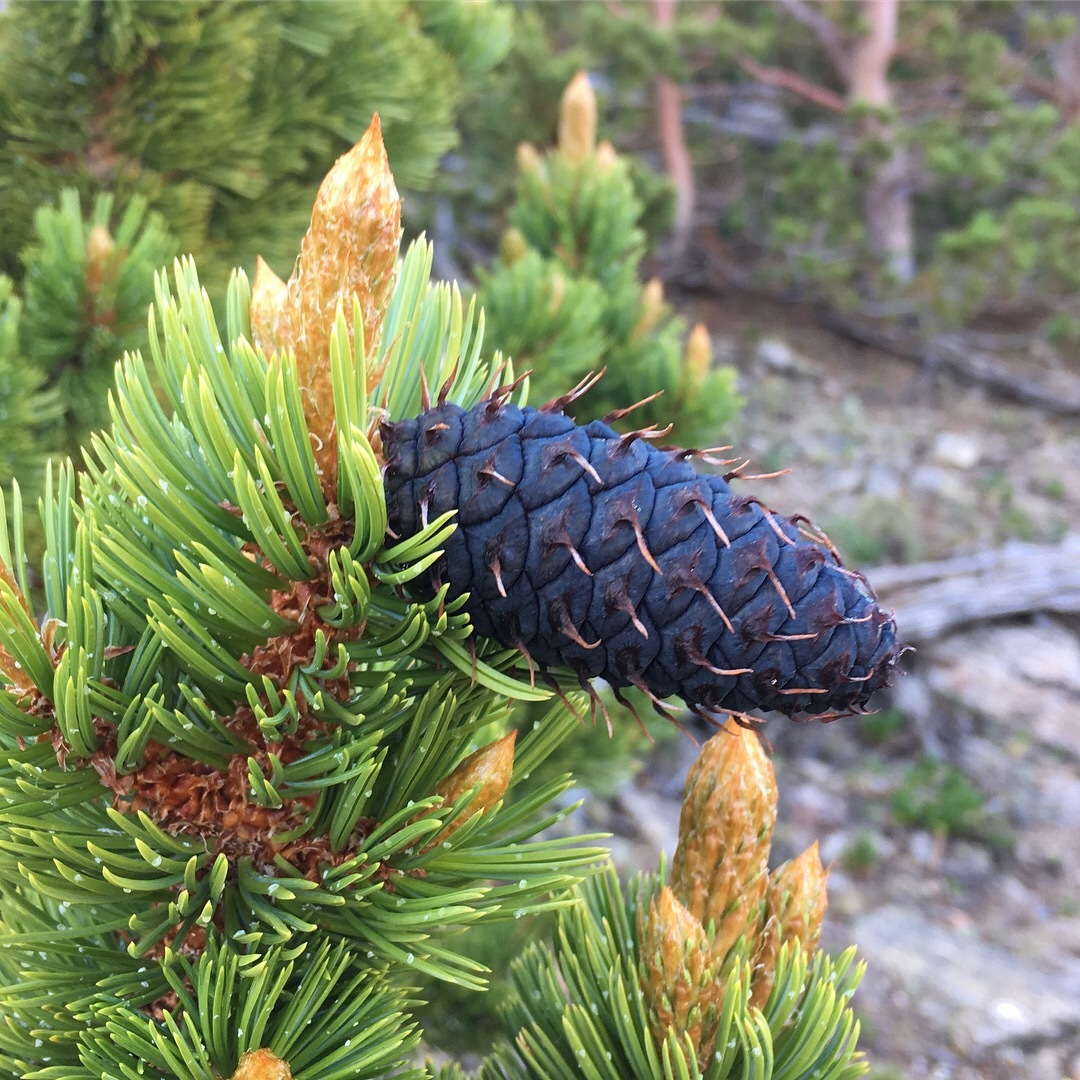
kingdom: Plantae
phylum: Tracheophyta
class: Pinopsida
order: Pinales
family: Pinaceae
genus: Pinus
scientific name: Pinus aristata
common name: Colorado bristlecone pine
